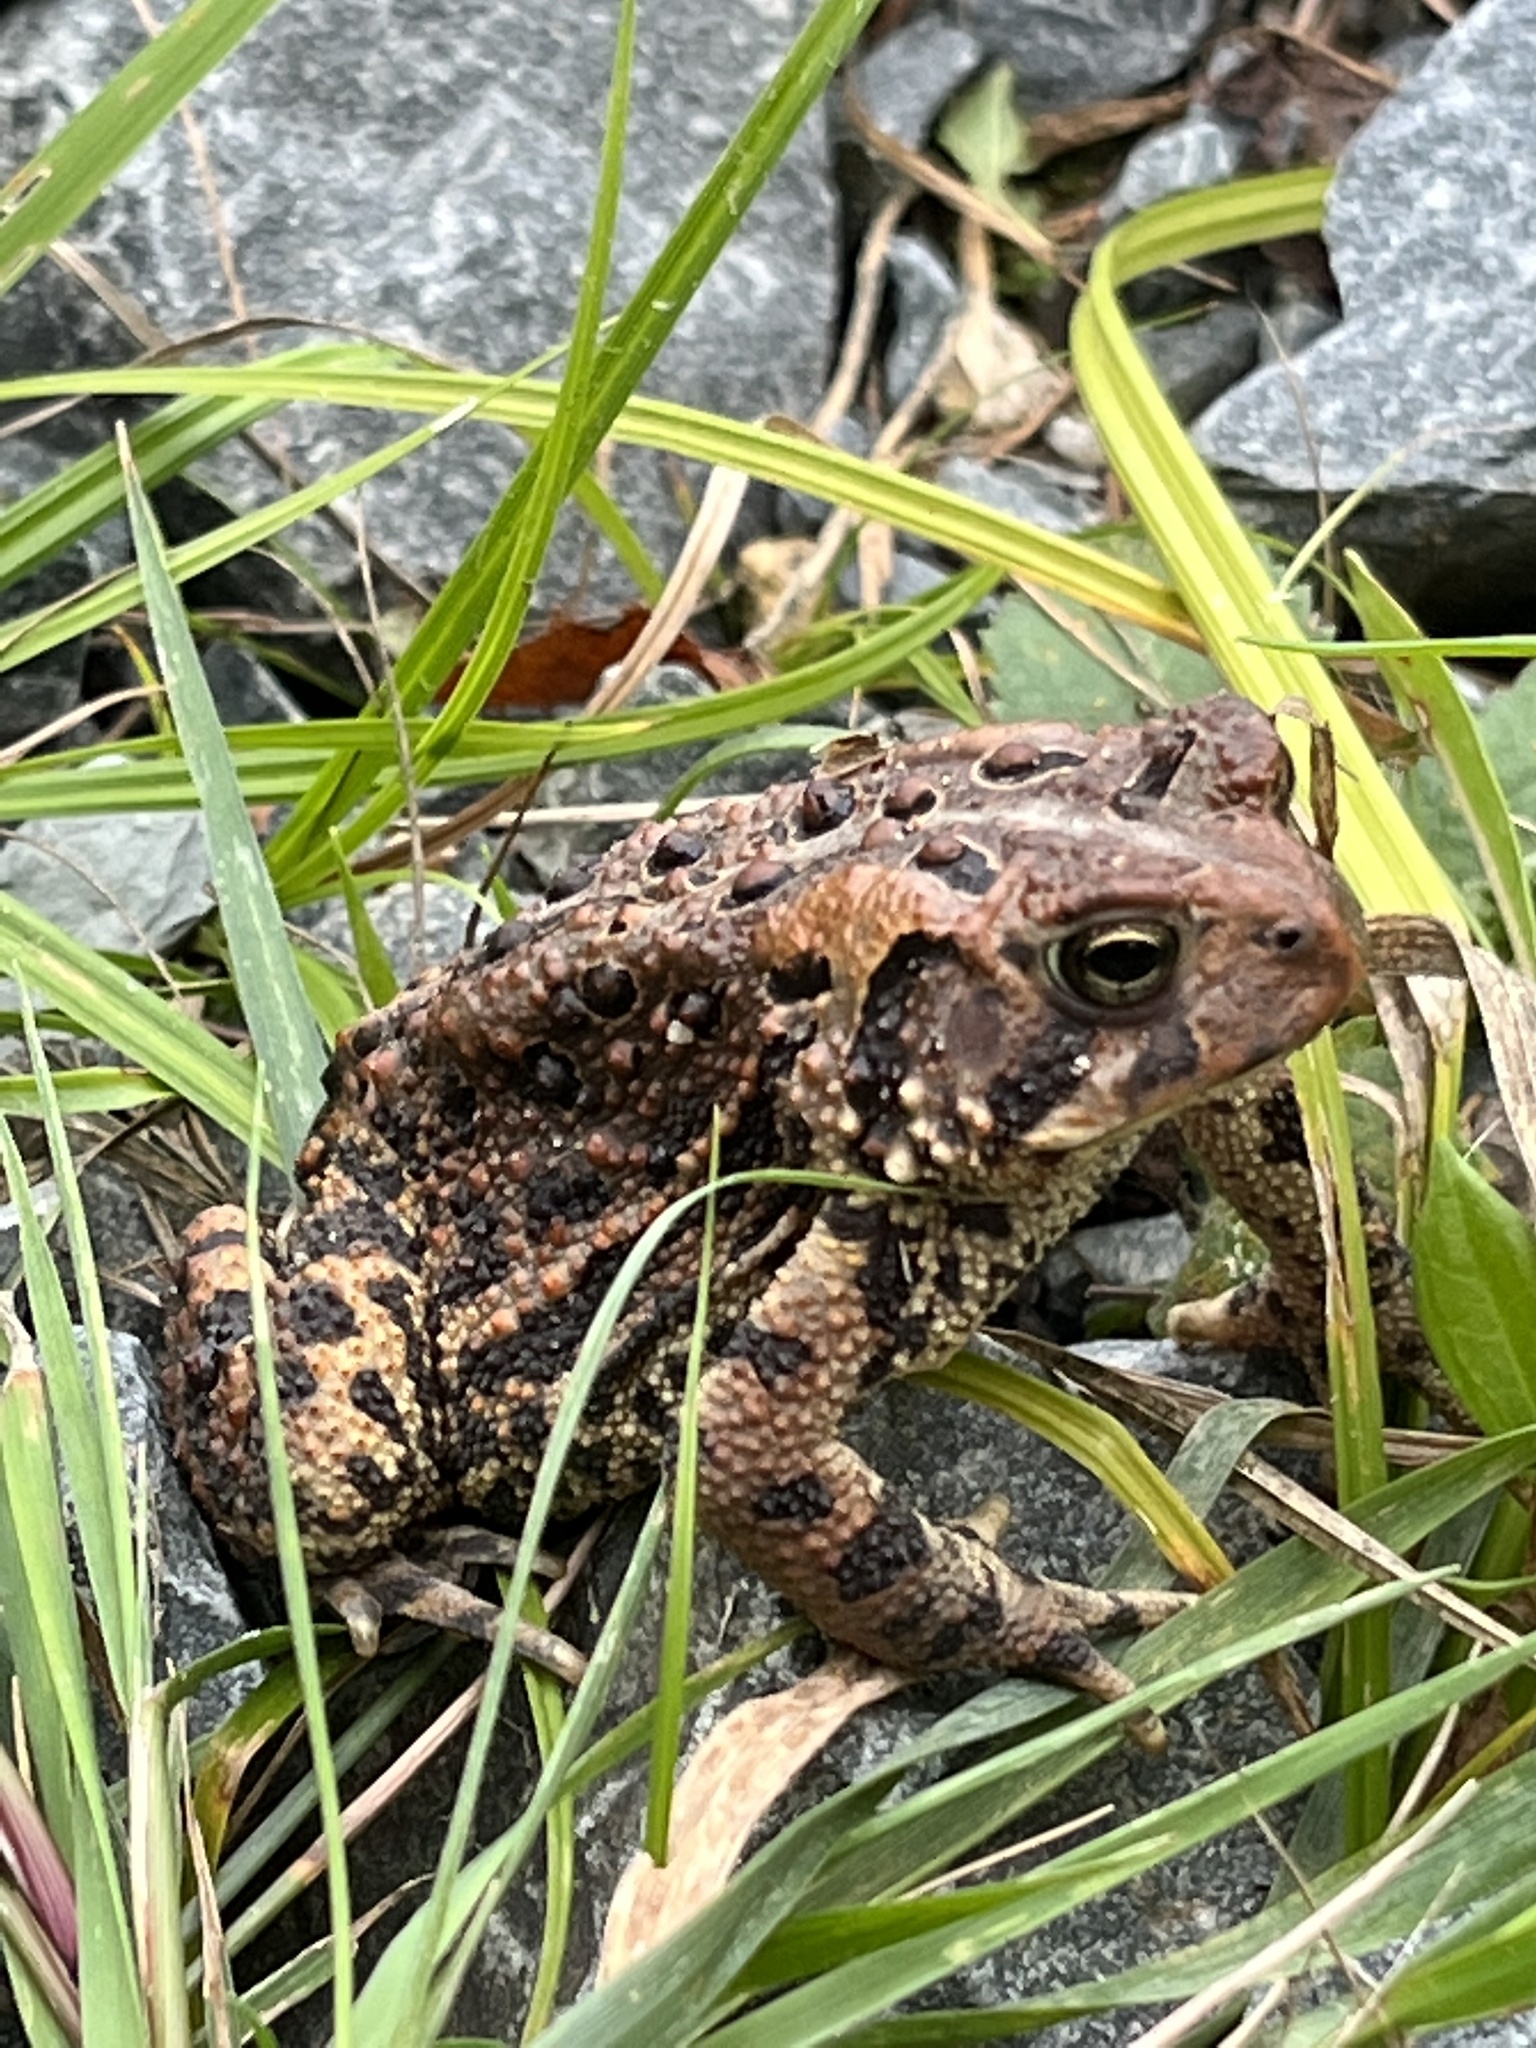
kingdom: Animalia
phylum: Chordata
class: Amphibia
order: Anura
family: Bufonidae
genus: Anaxyrus
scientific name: Anaxyrus americanus
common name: American toad
